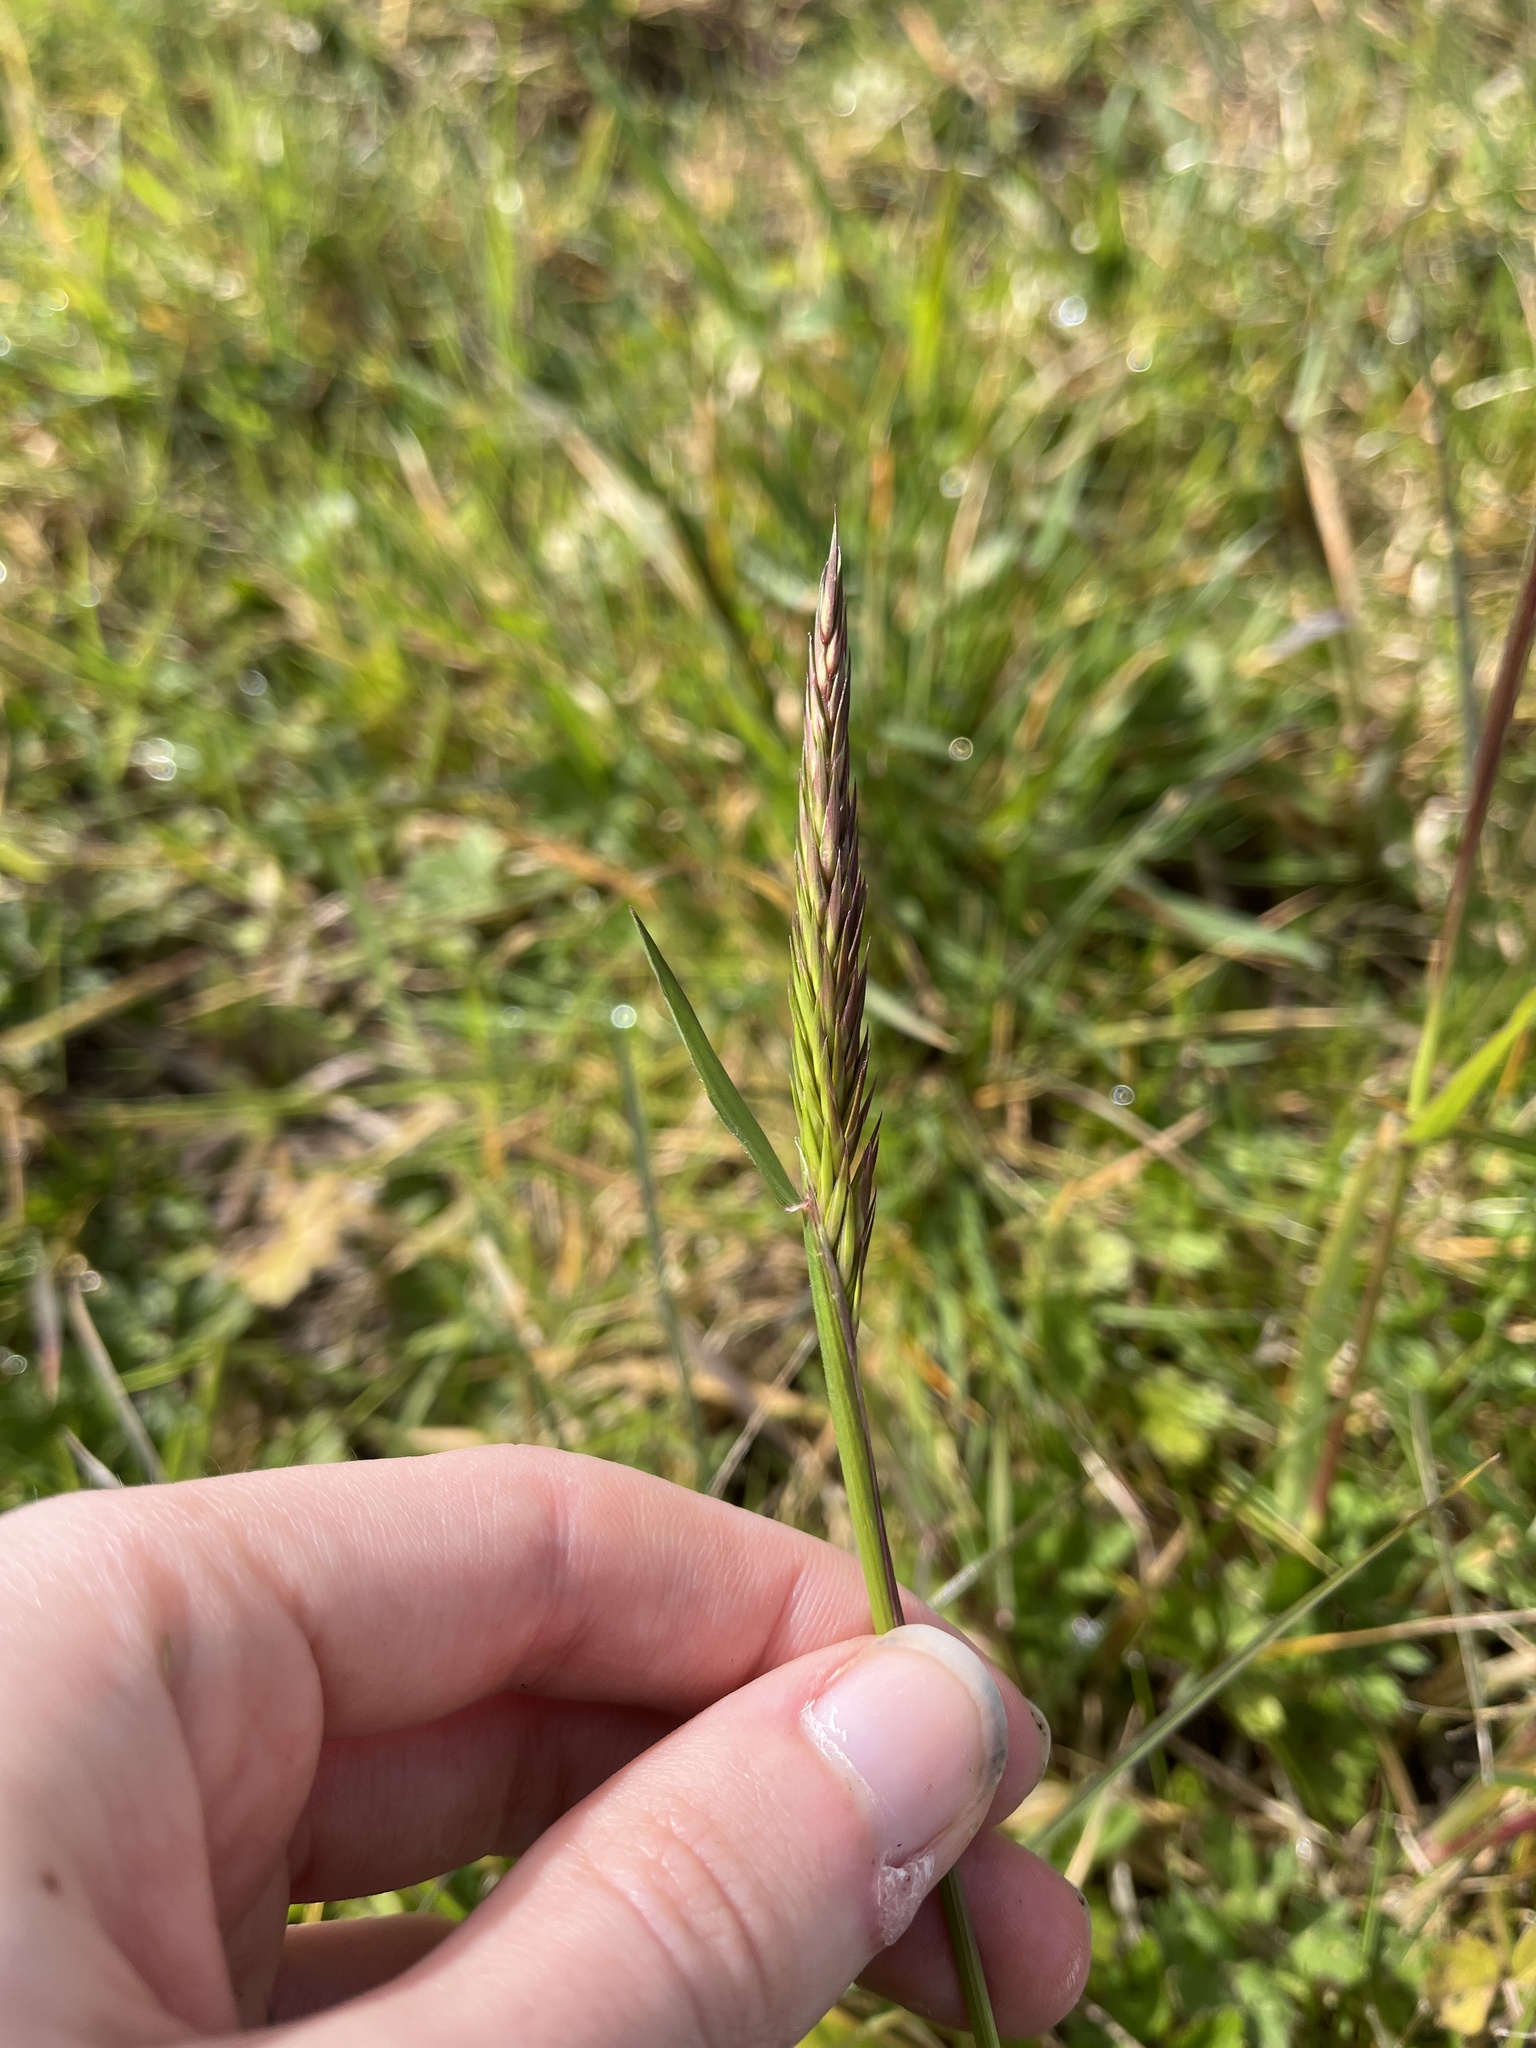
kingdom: Plantae
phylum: Tracheophyta
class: Liliopsida
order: Poales
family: Poaceae
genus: Anthoxanthum
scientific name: Anthoxanthum odoratum
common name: Sweet vernalgrass
